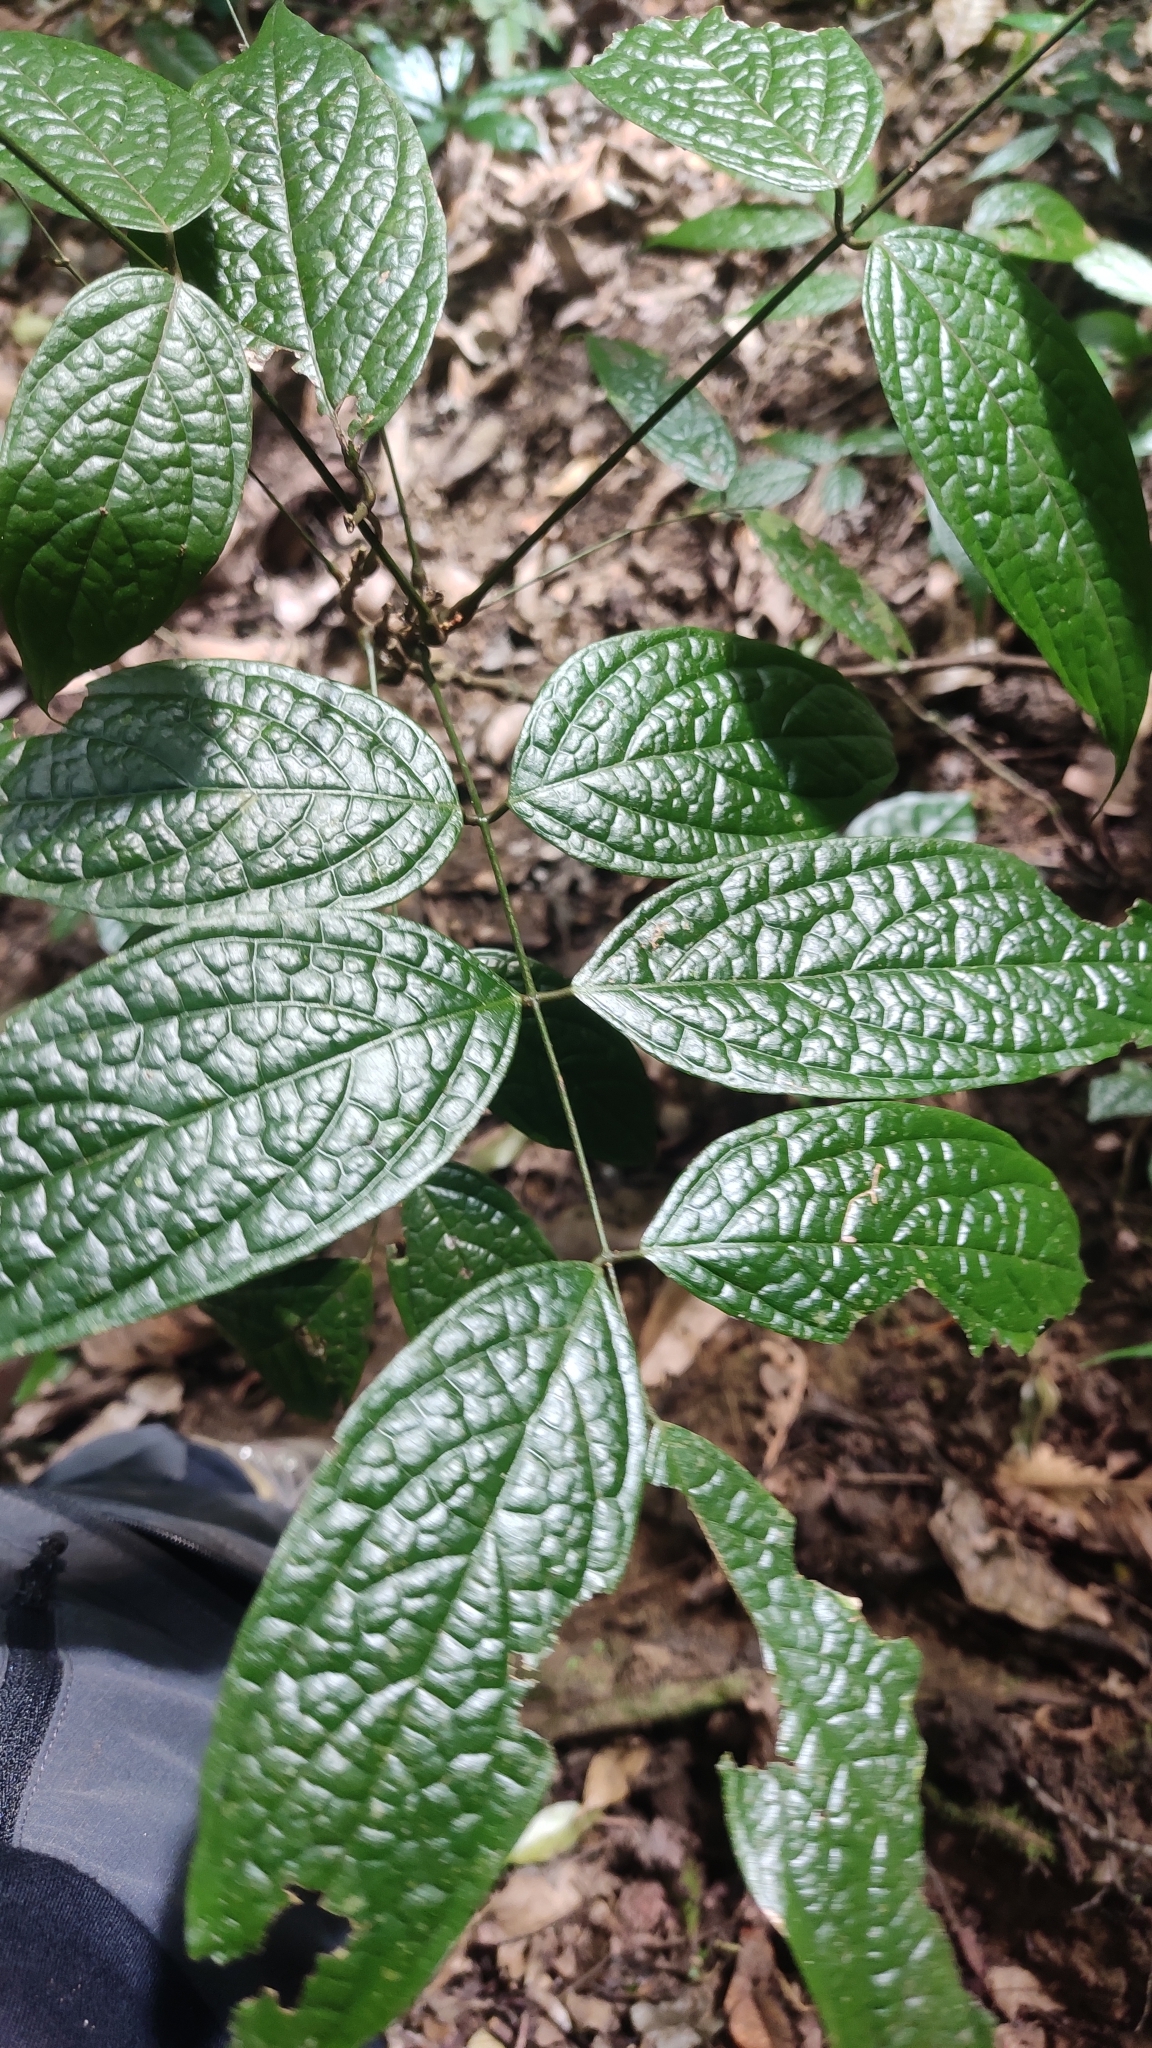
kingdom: Plantae
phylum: Tracheophyta
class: Magnoliopsida
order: Fabales
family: Fabaceae
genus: Kunstleria
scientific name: Kunstleria keralensis
